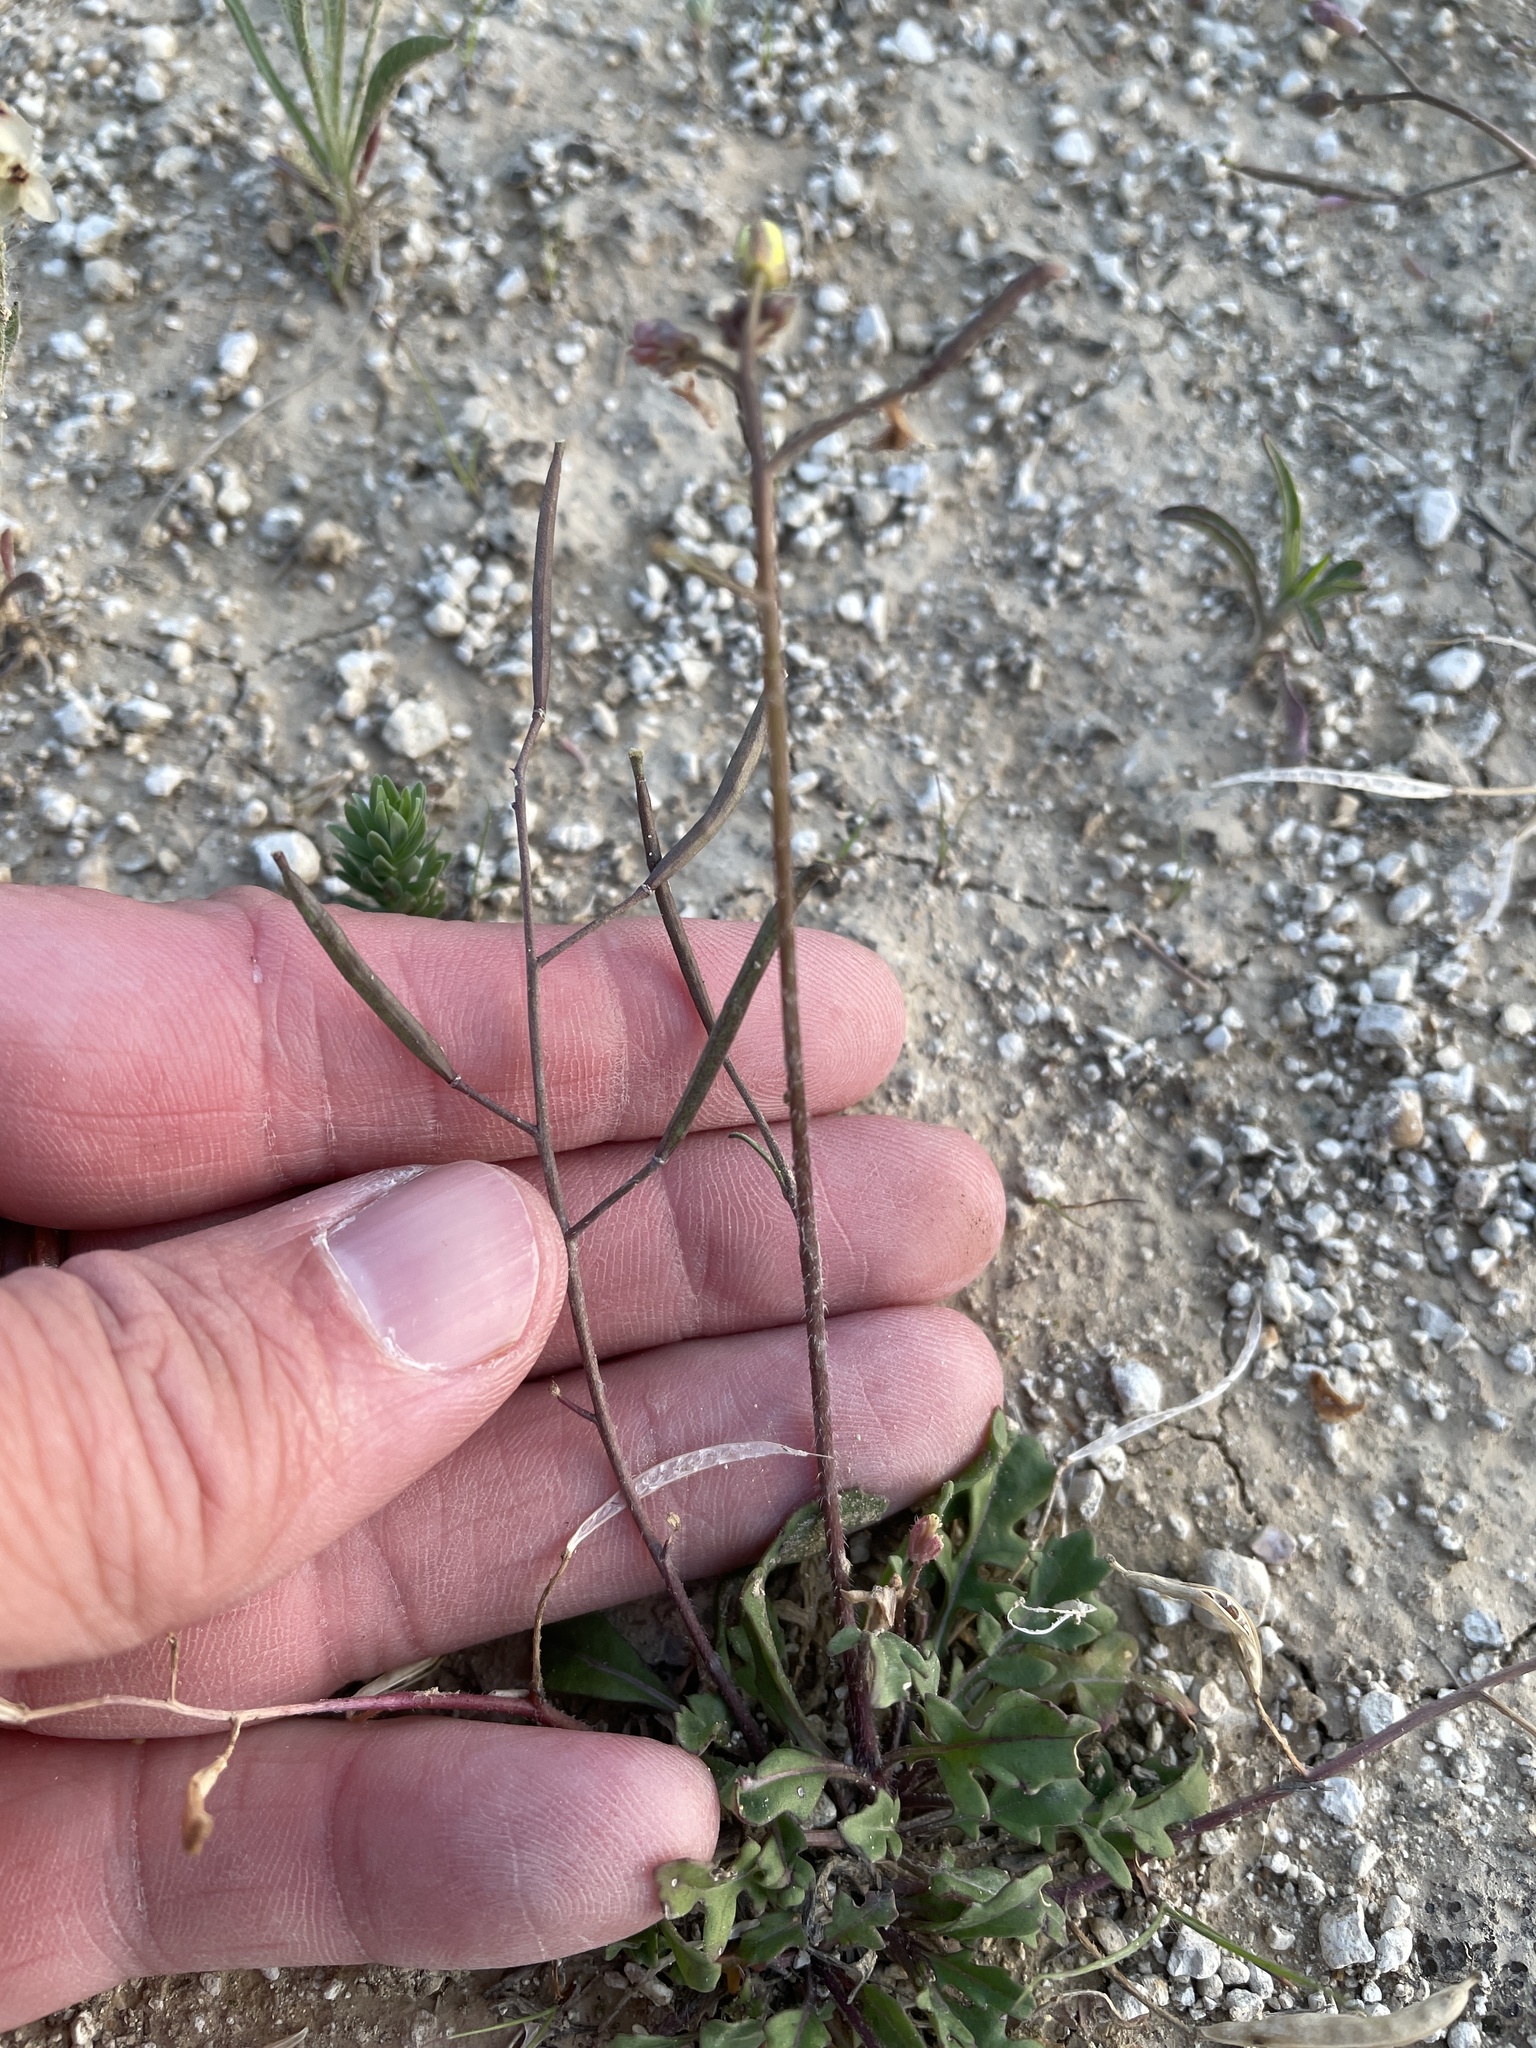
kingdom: Plantae
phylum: Tracheophyta
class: Magnoliopsida
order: Brassicales
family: Brassicaceae
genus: Diplotaxis
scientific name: Diplotaxis muralis
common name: Annual wall-rocket
